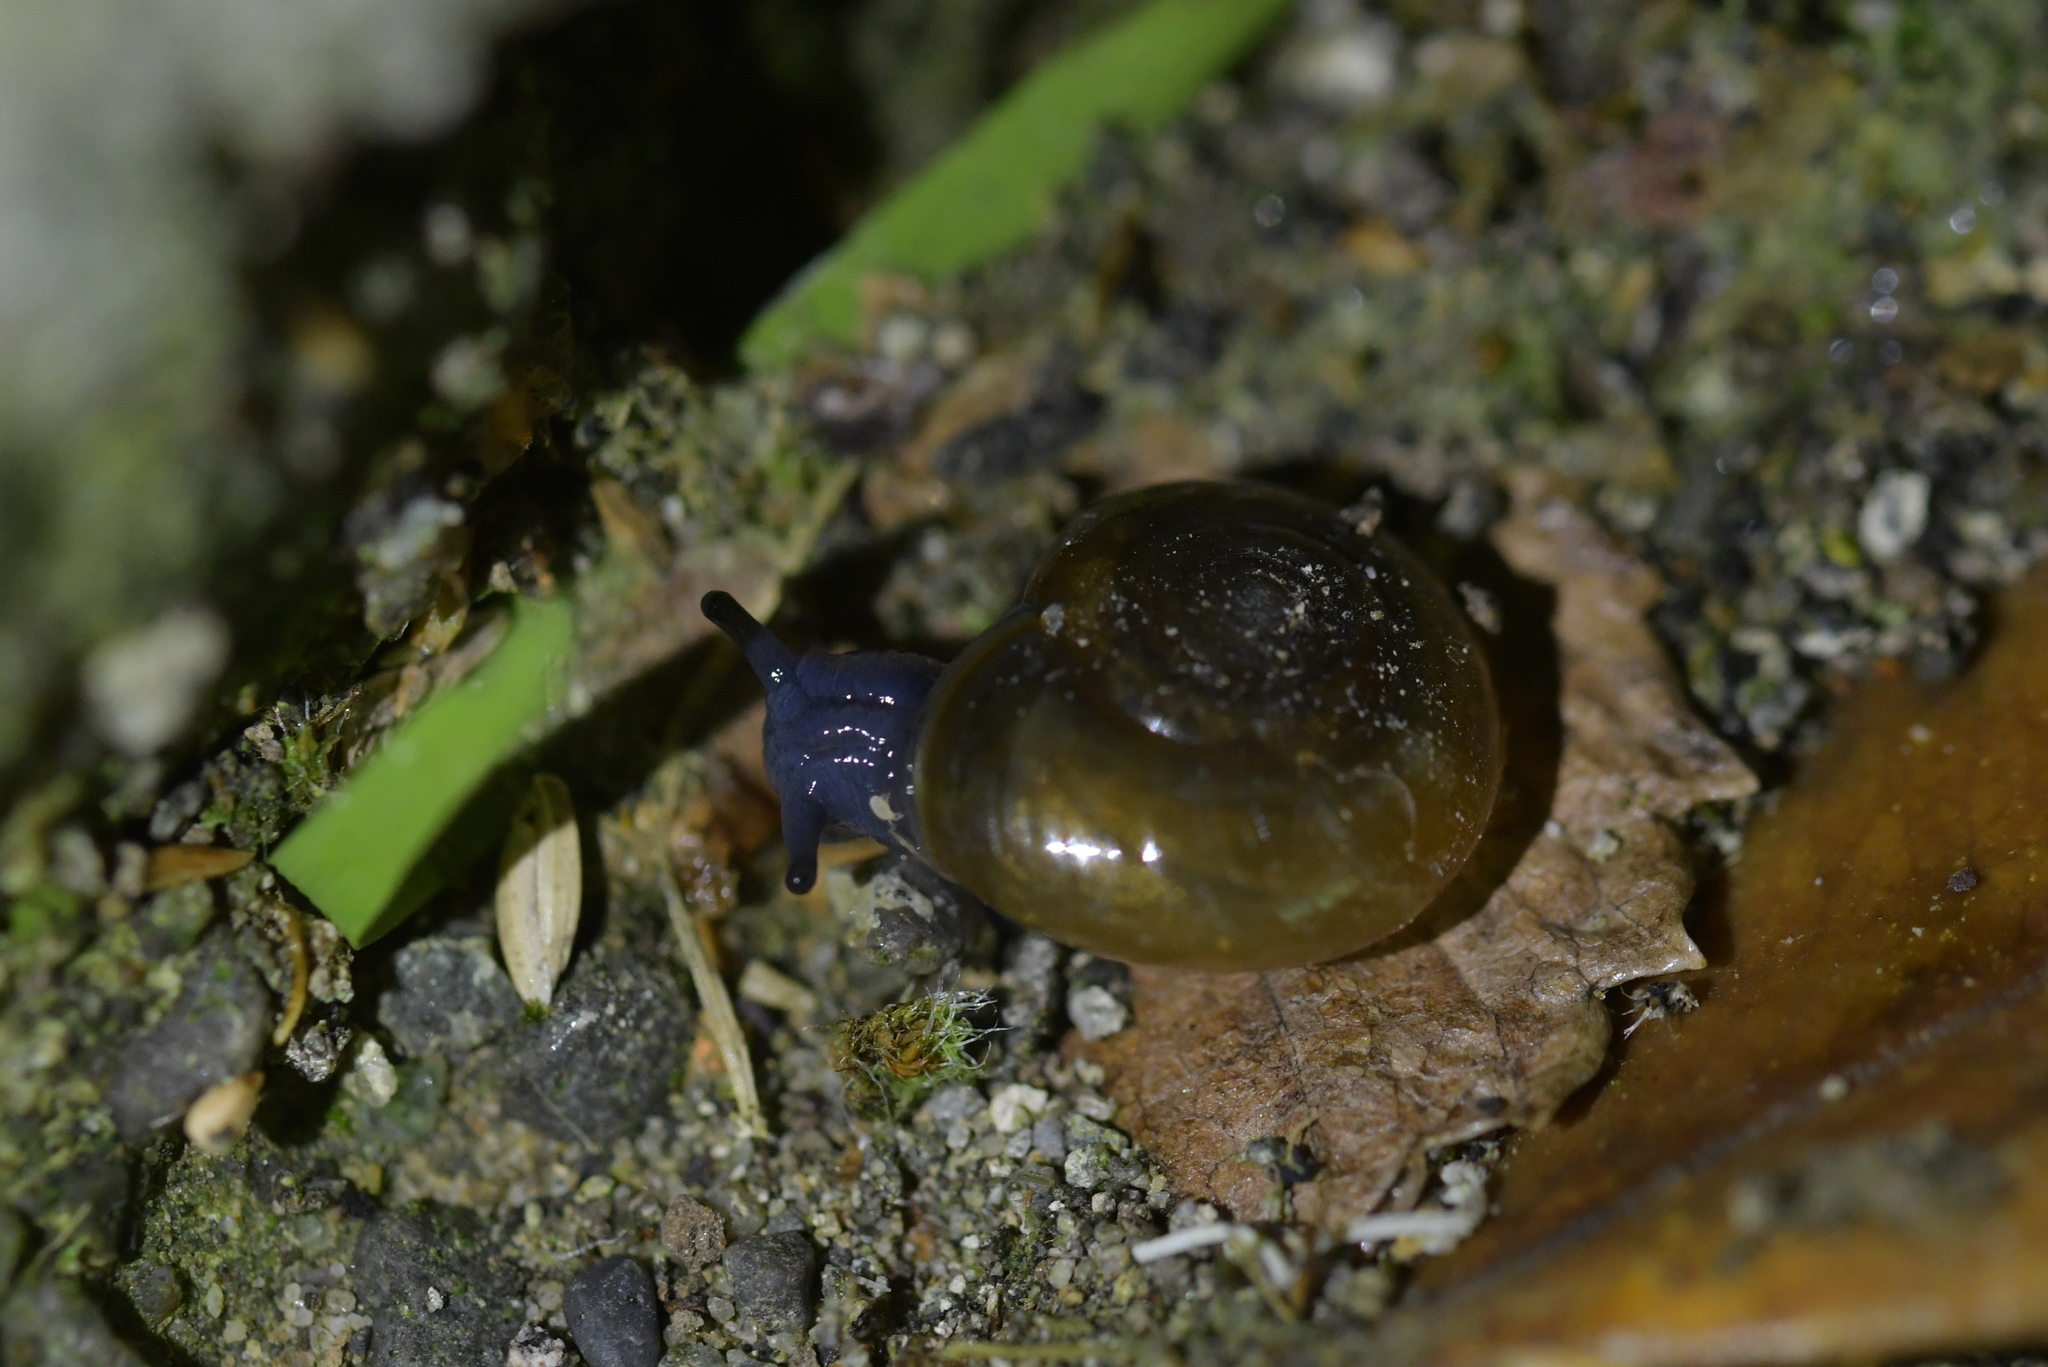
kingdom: Animalia
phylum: Mollusca
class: Gastropoda
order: Stylommatophora
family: Oxychilidae
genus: Oxychilus
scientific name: Oxychilus draparnaudi
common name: Draparnaud's glass snail
